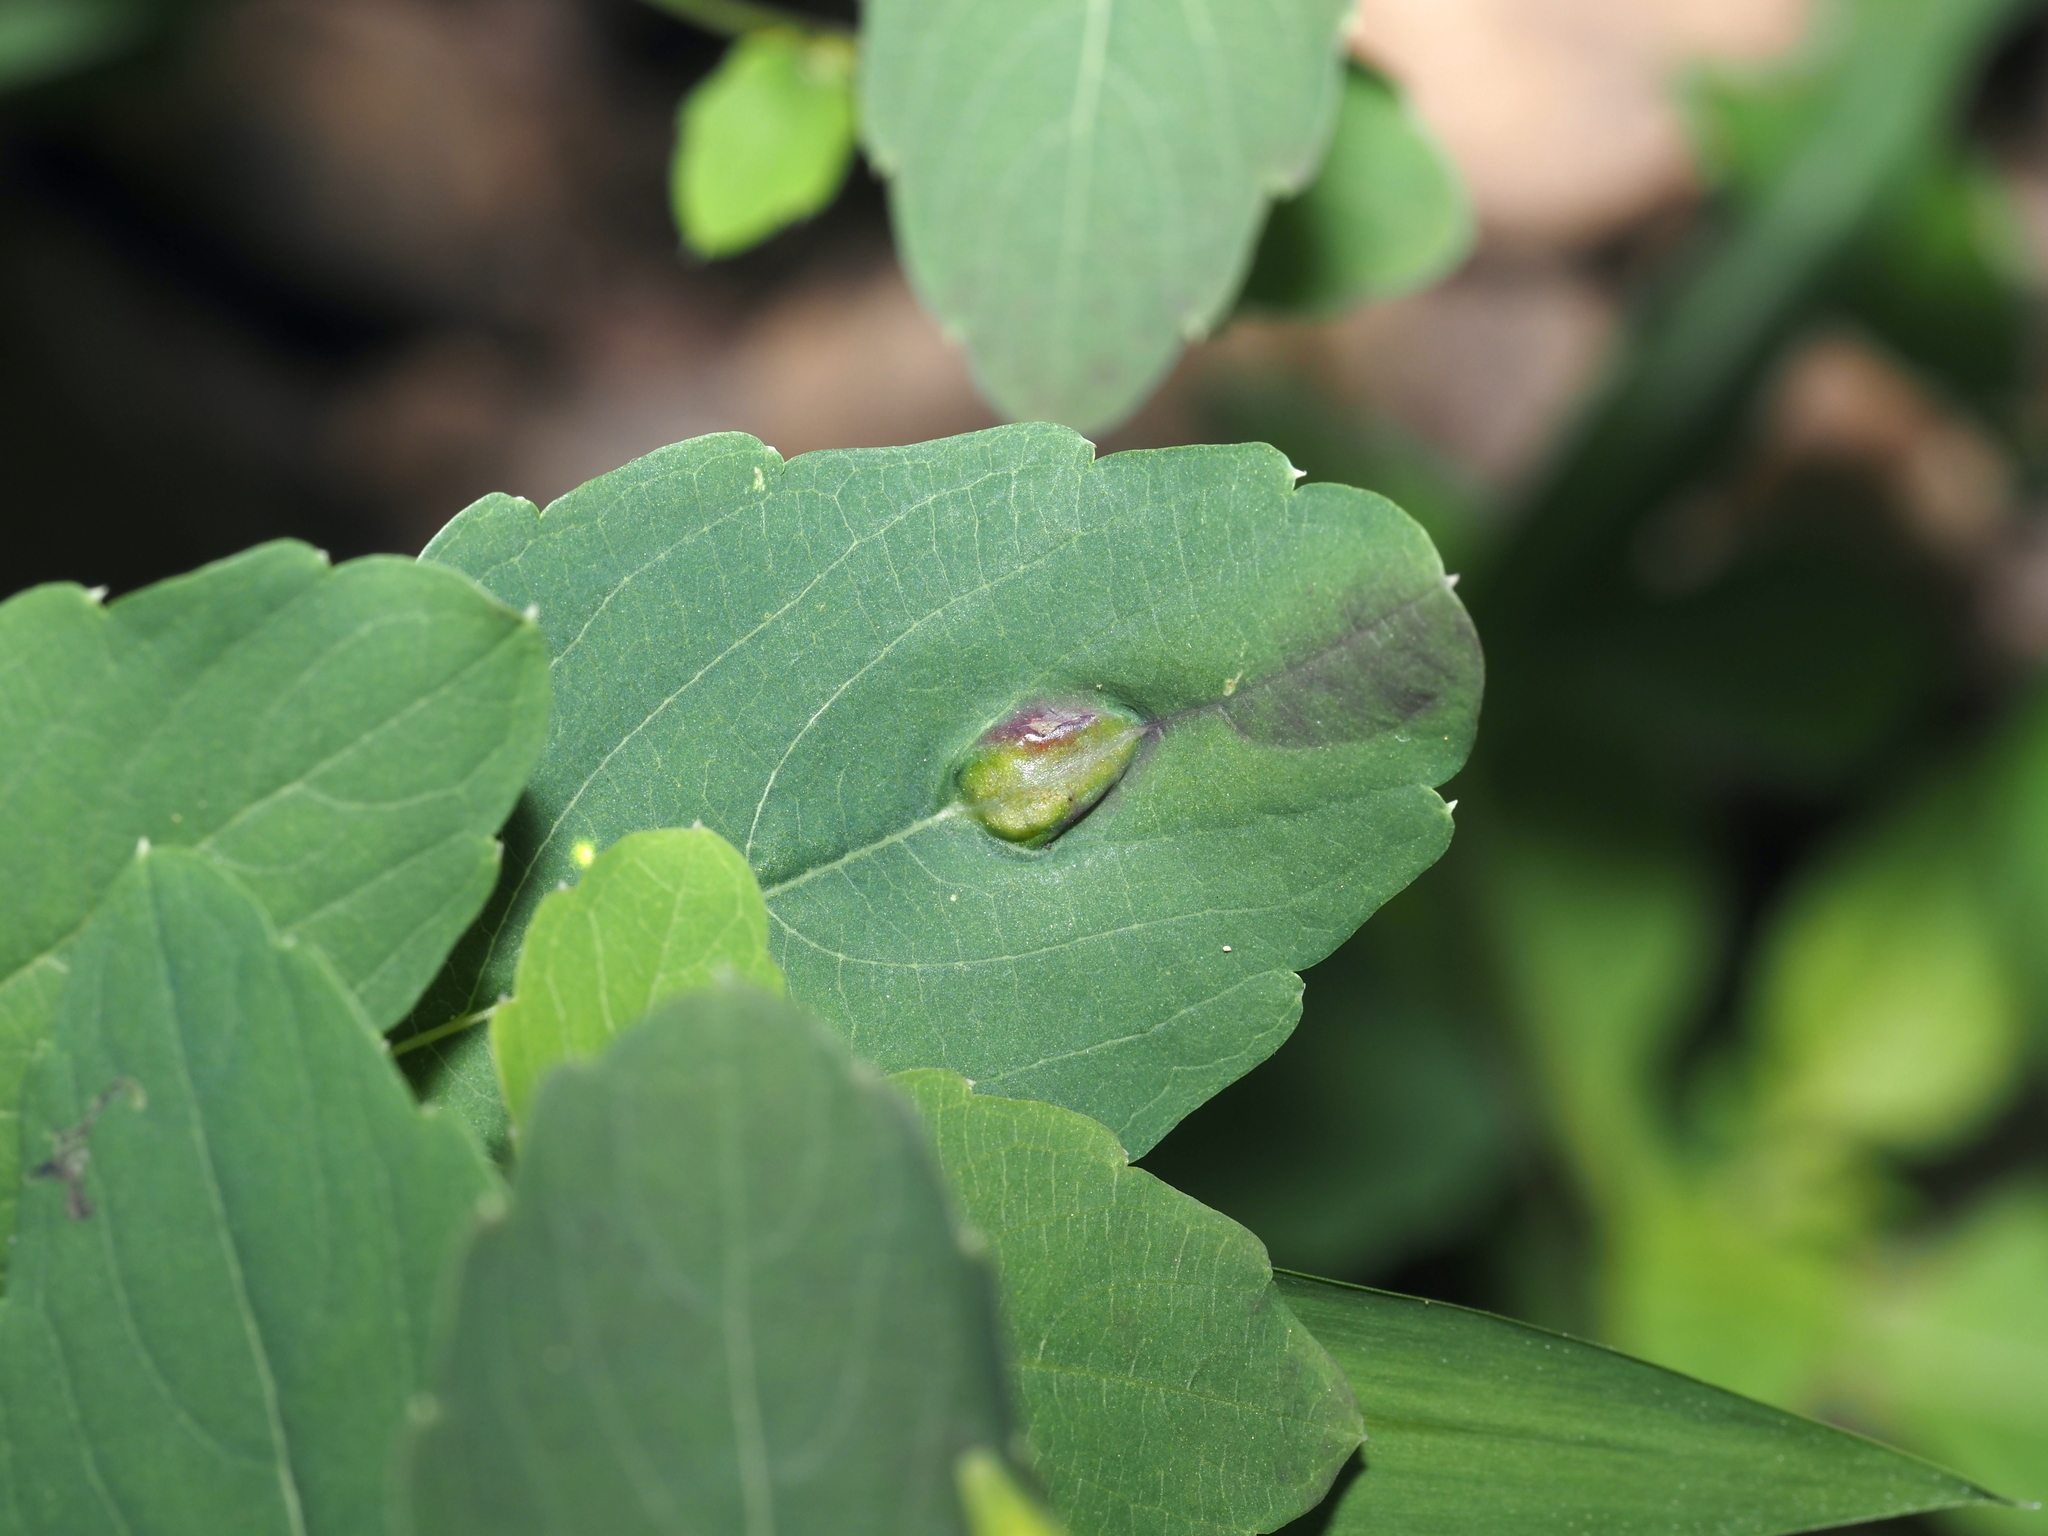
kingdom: Animalia
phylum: Arthropoda
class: Insecta
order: Diptera
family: Cecidomyiidae
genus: Neolasioptera
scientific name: Neolasioptera impatientifolia
